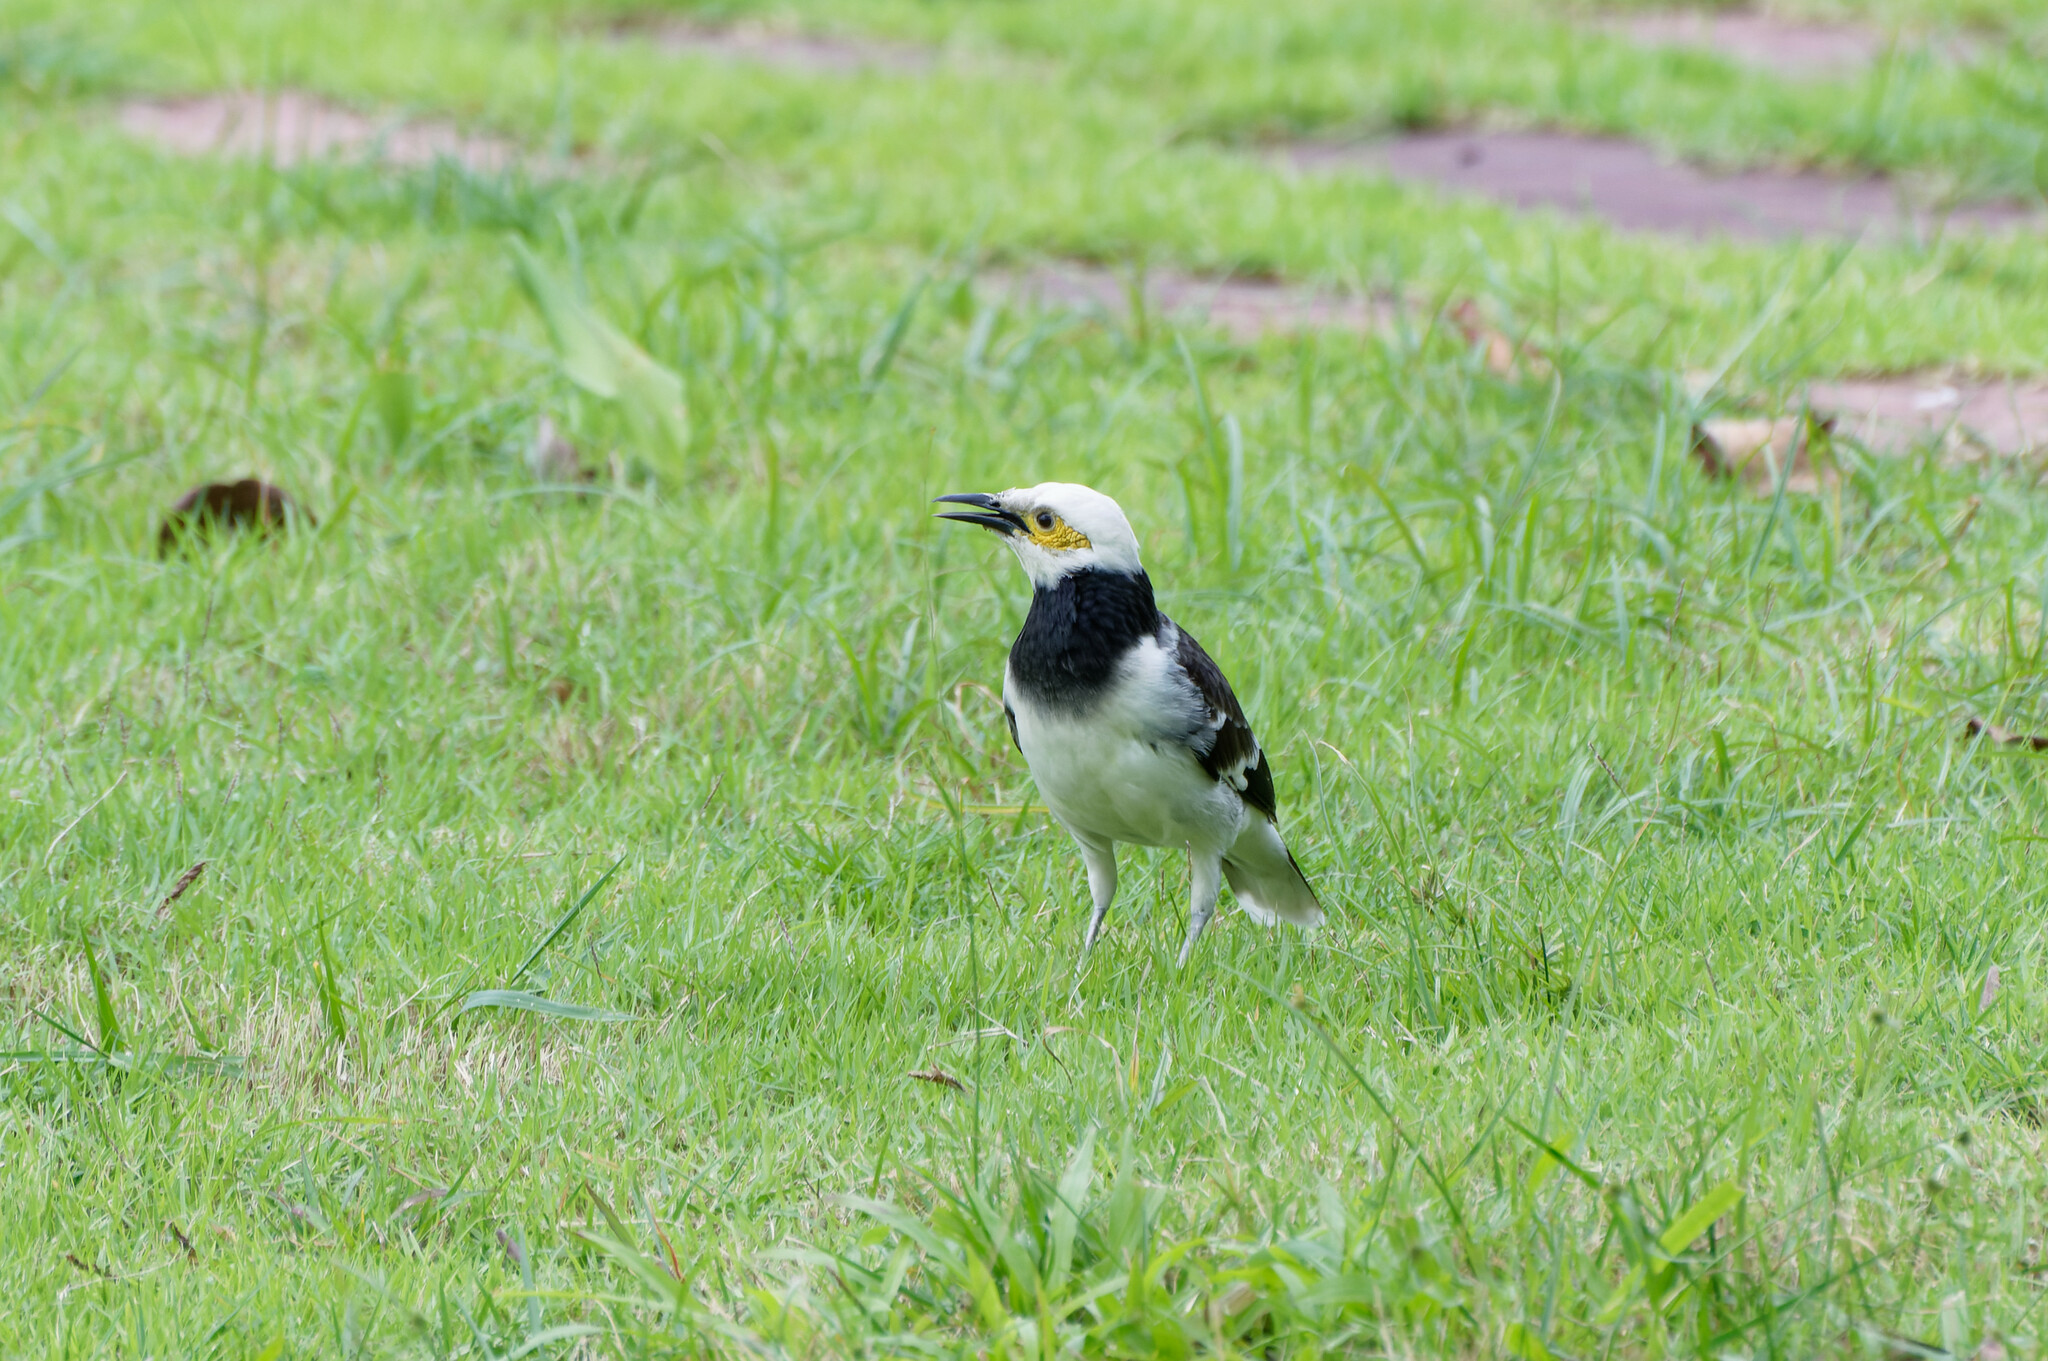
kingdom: Animalia
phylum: Chordata
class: Aves
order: Passeriformes
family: Sturnidae
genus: Gracupica
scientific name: Gracupica nigricollis
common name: Black-collared starling
